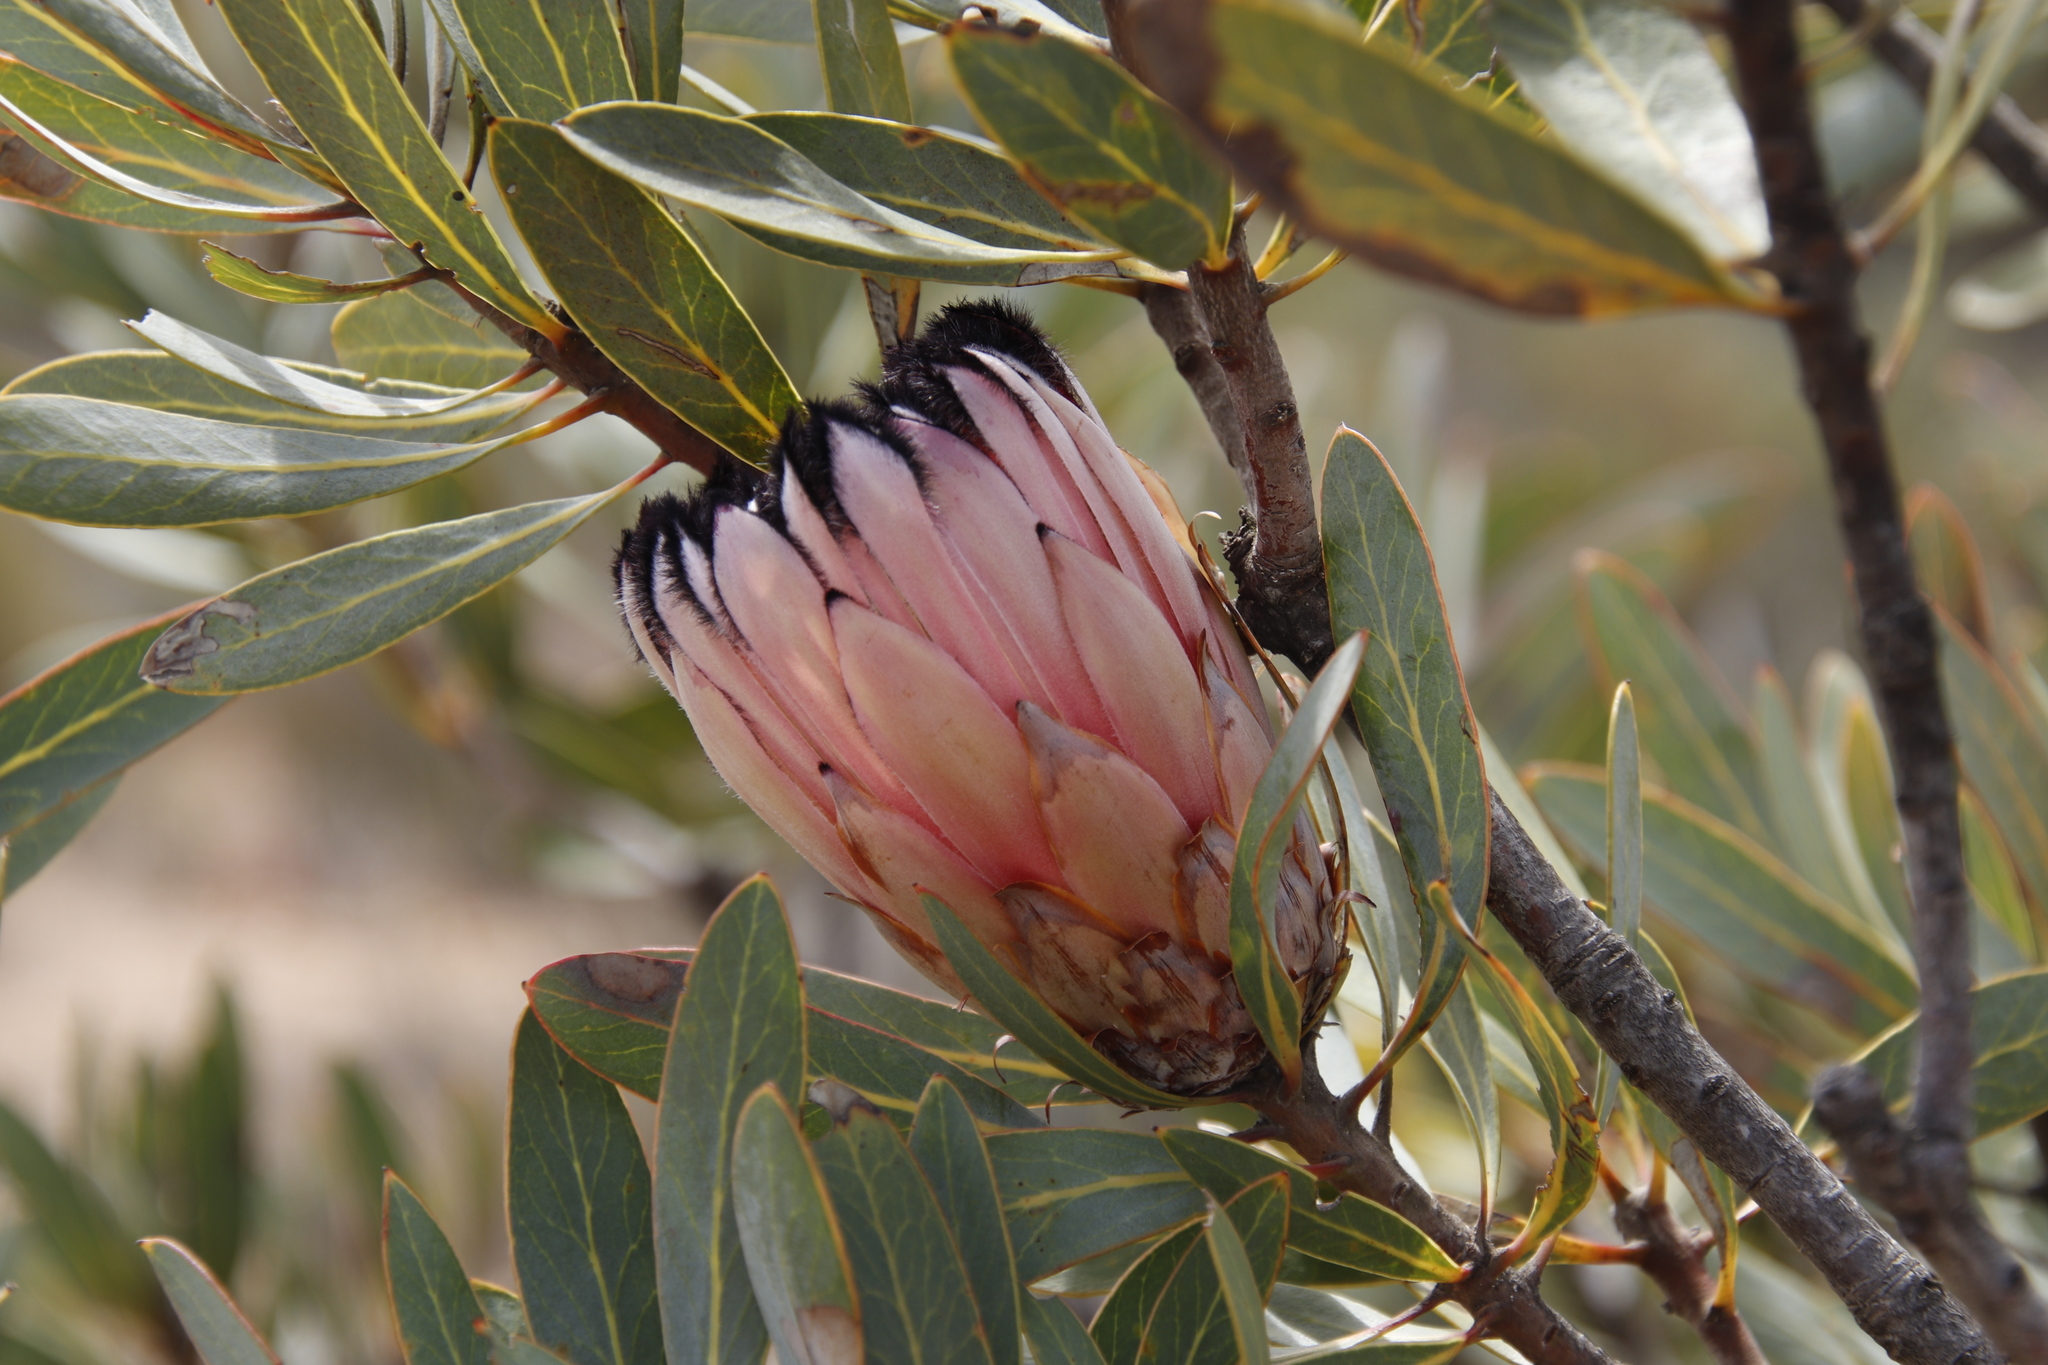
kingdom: Plantae
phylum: Tracheophyta
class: Magnoliopsida
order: Proteales
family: Proteaceae
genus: Protea
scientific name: Protea laurifolia
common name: Grey-leaf sugarbsh
